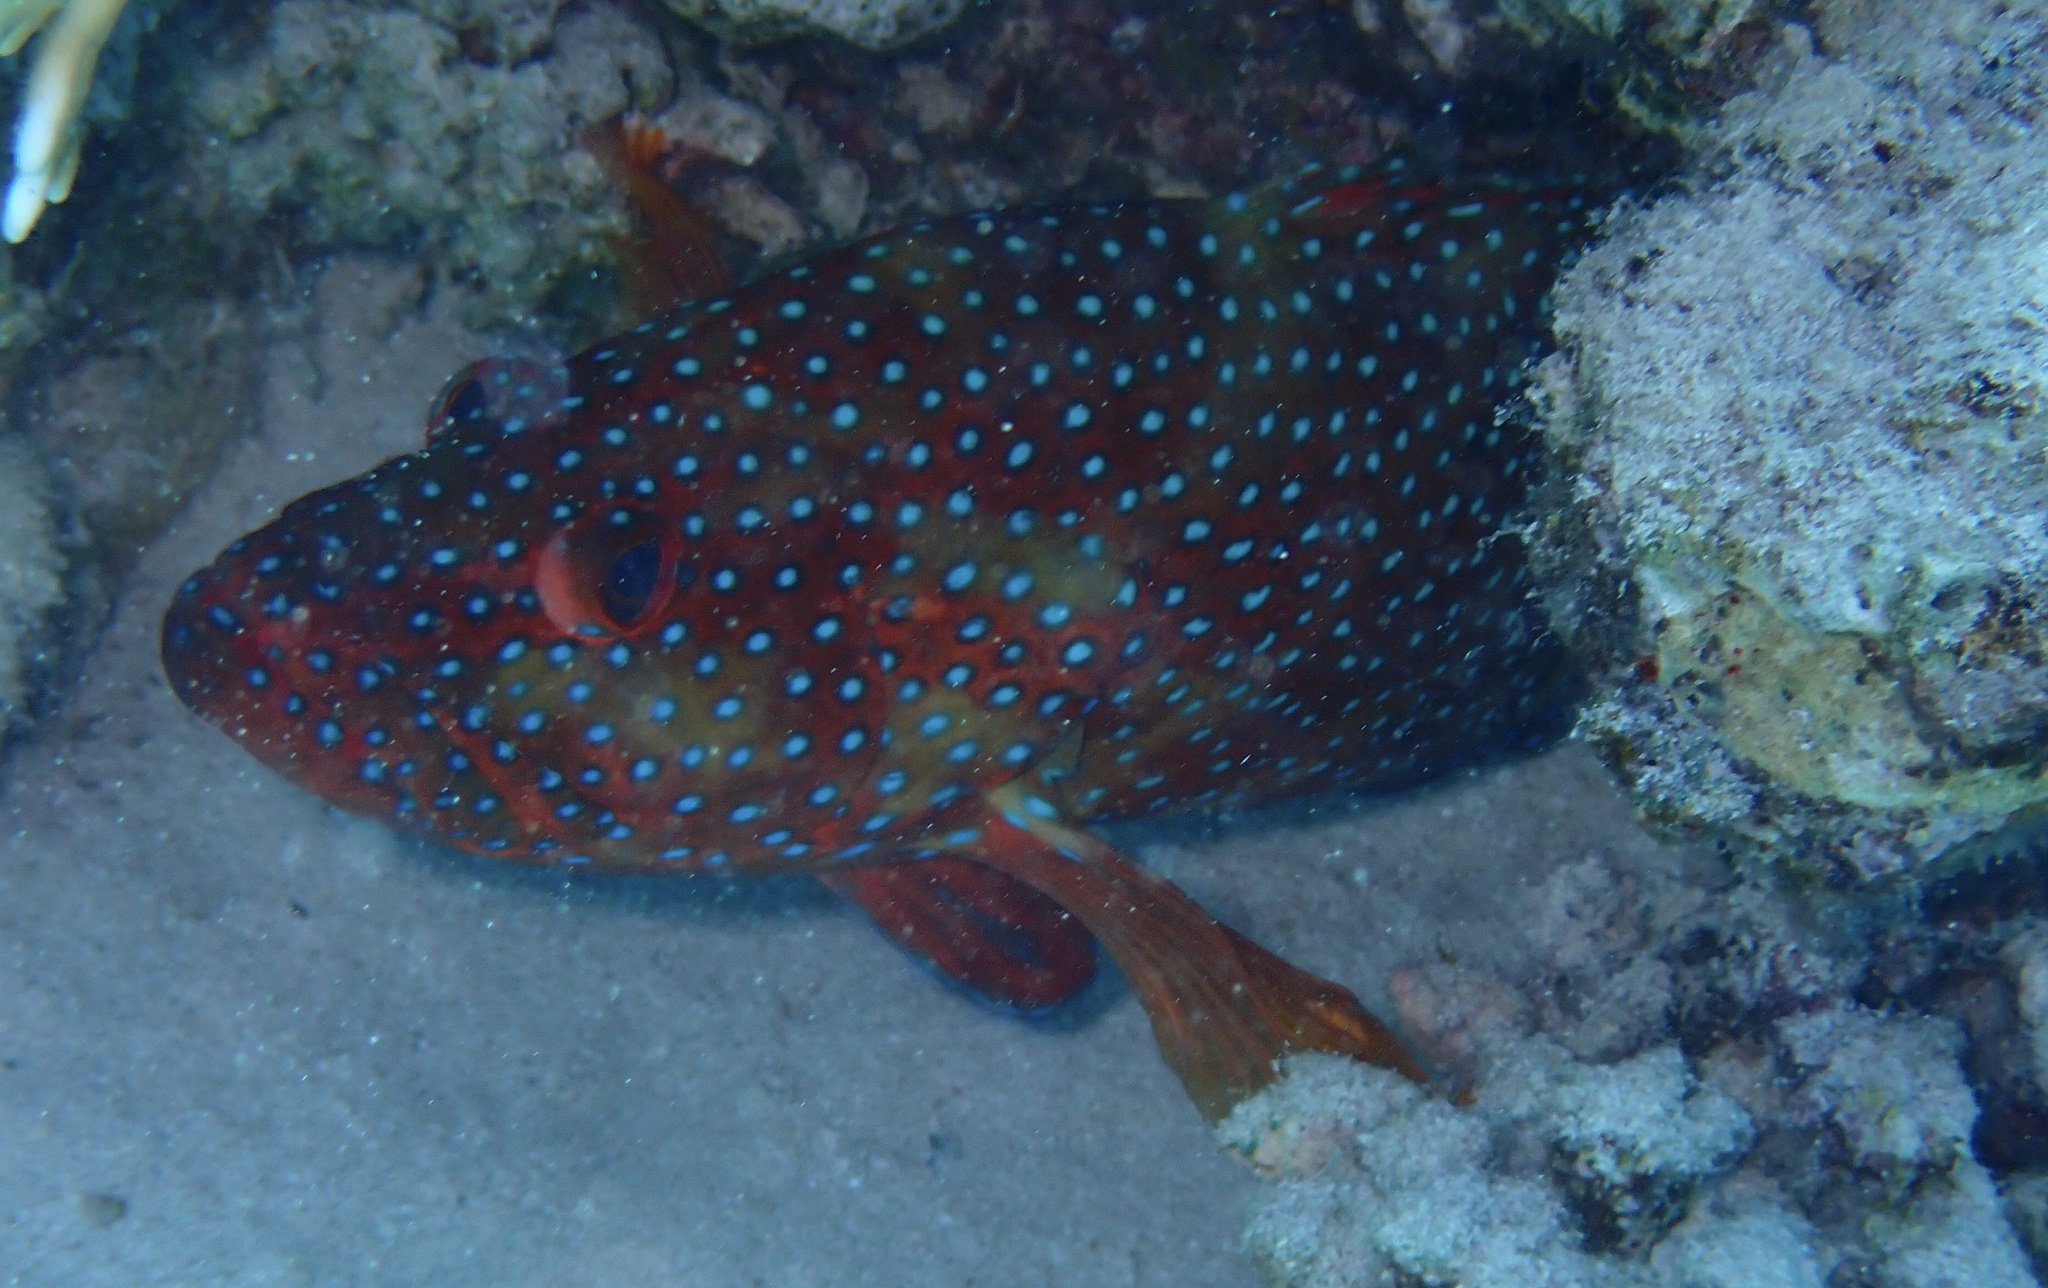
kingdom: Animalia
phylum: Chordata
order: Perciformes
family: Serranidae
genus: Cephalopholis
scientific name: Cephalopholis miniata
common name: Coral hind
